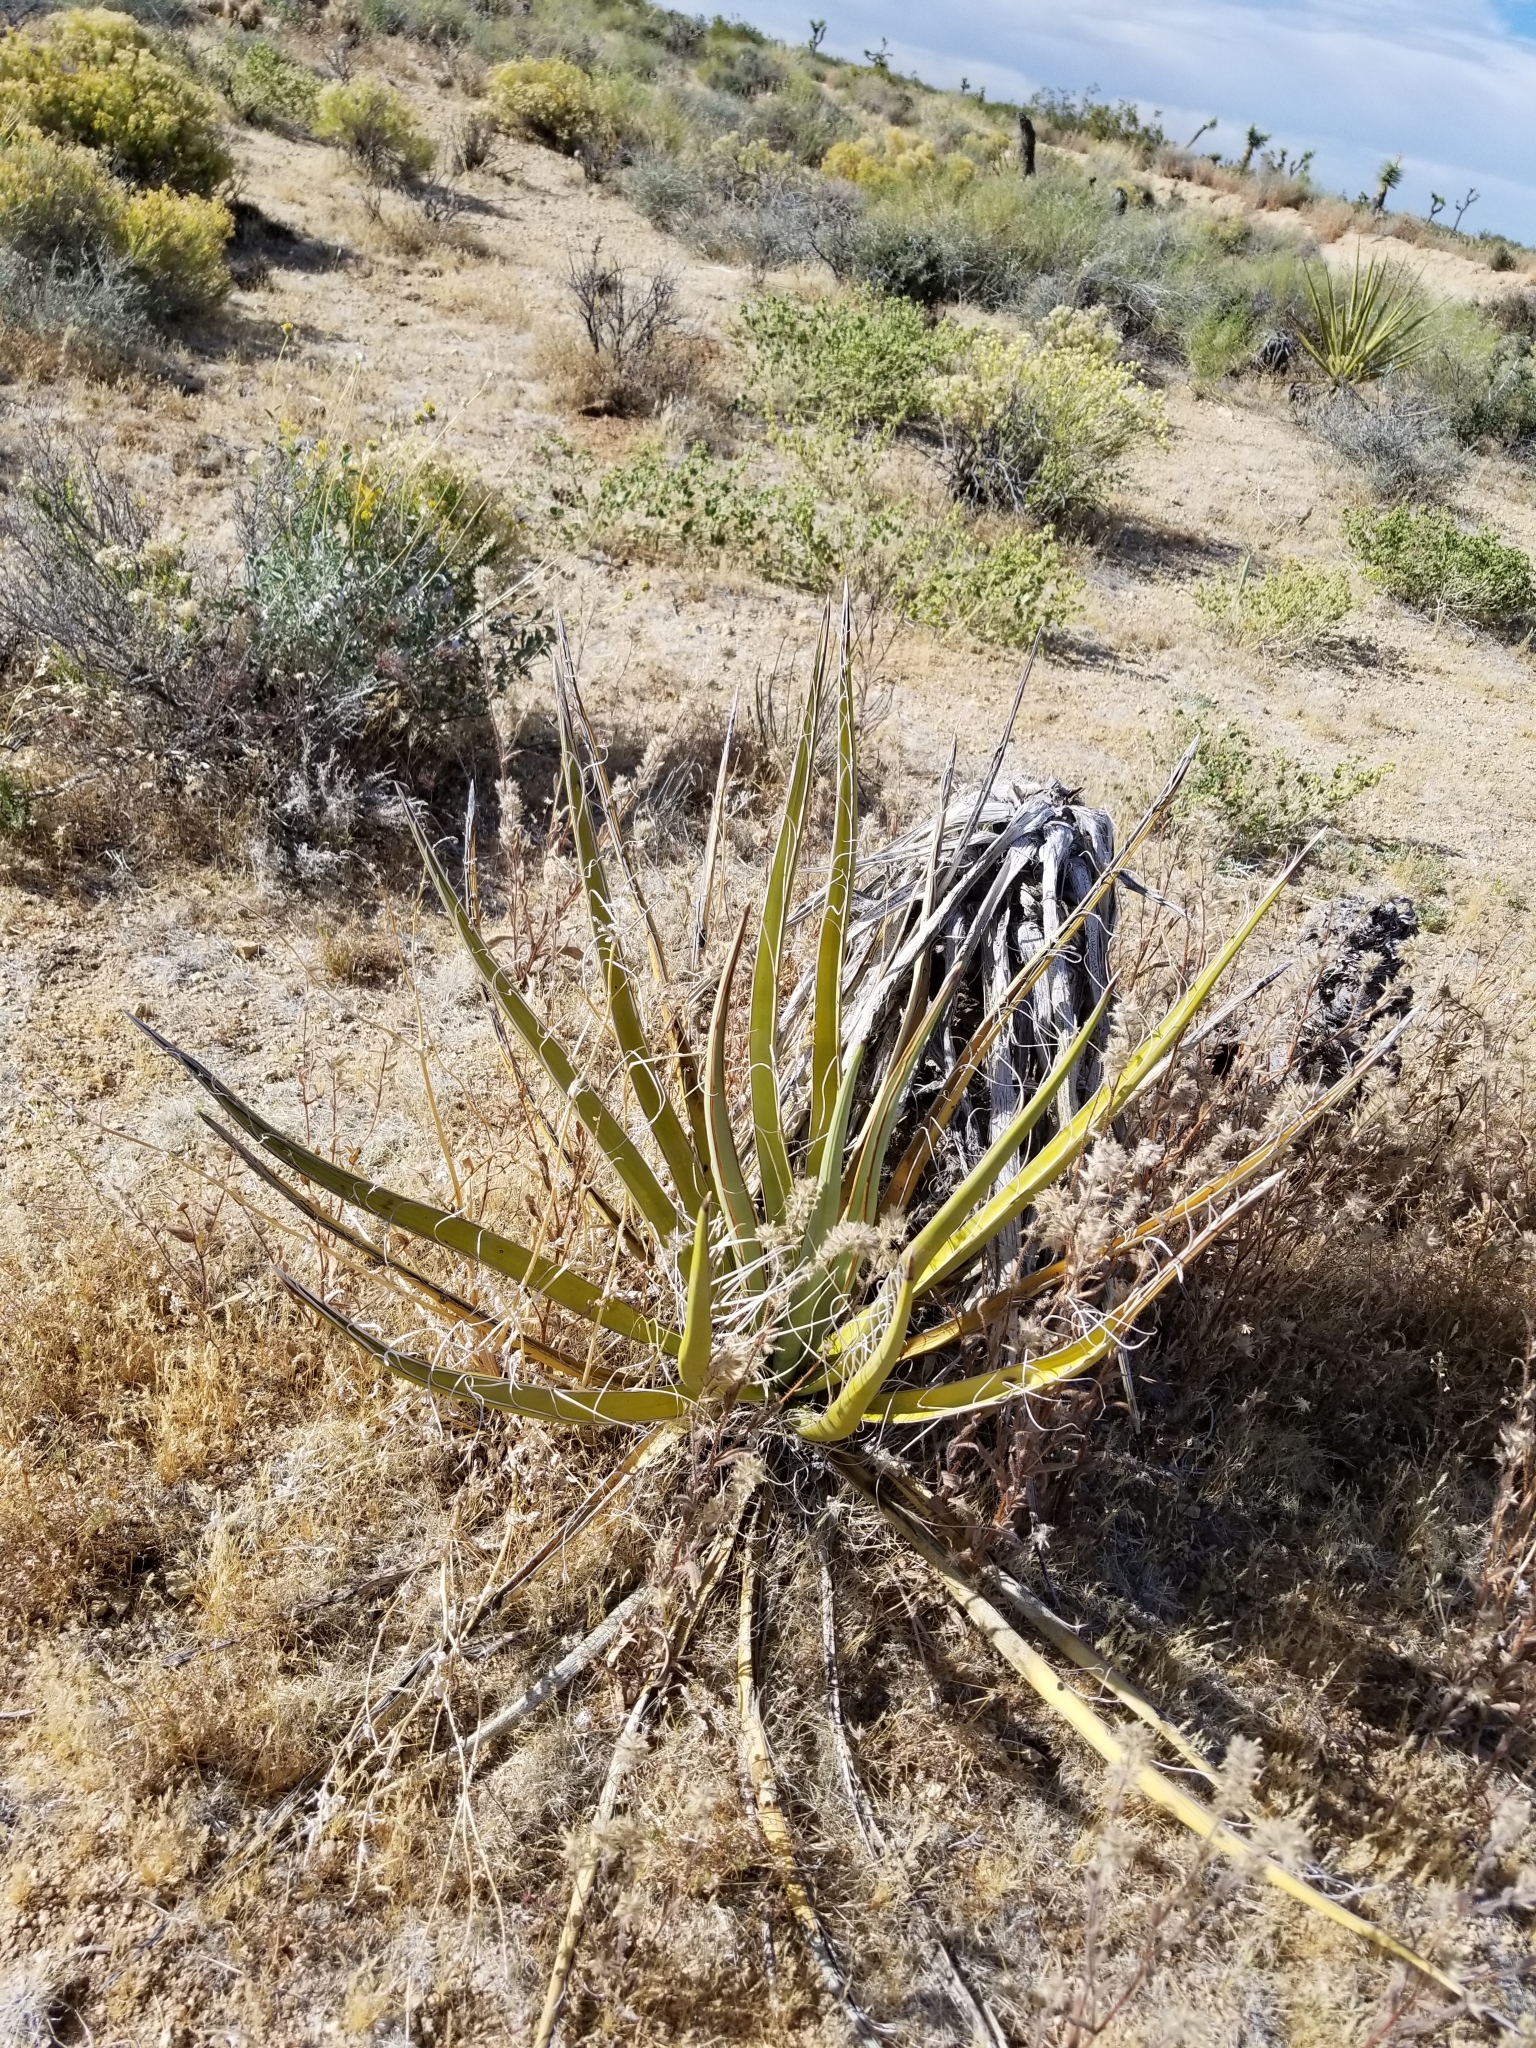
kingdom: Plantae
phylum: Tracheophyta
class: Liliopsida
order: Asparagales
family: Asparagaceae
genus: Yucca
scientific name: Yucca schidigera
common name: Mojave yucca
